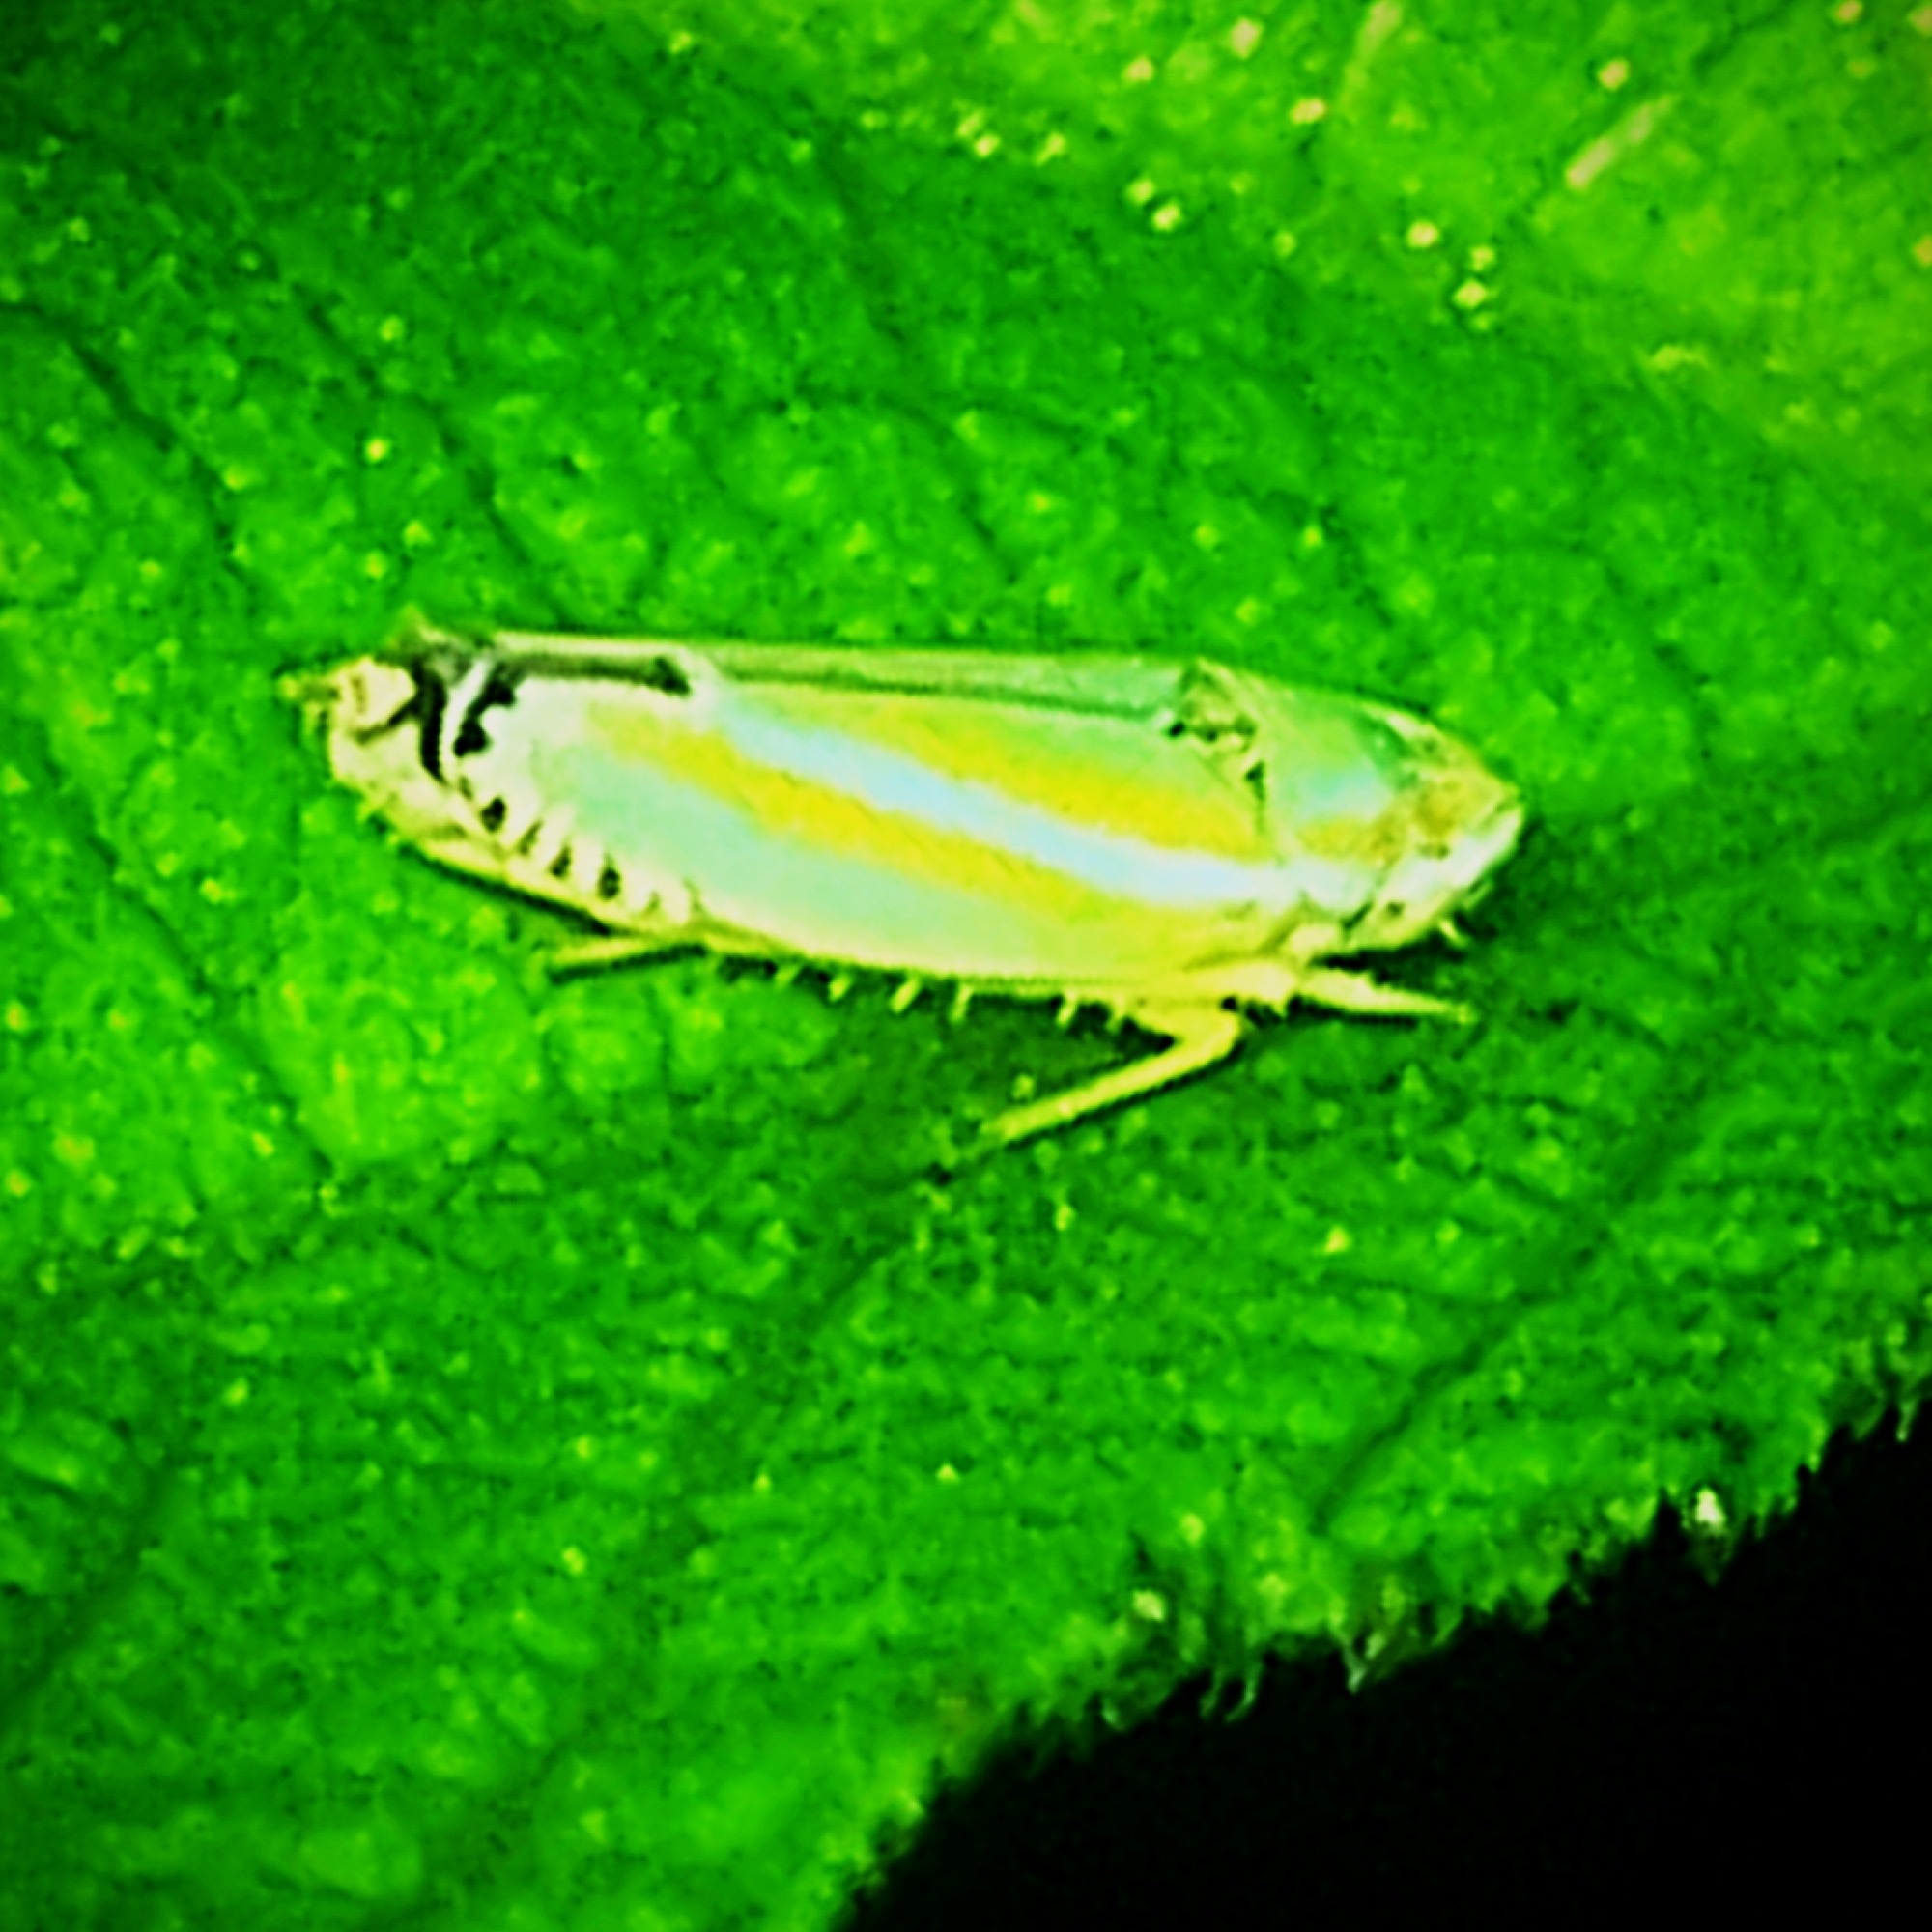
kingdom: Animalia
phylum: Arthropoda
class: Insecta
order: Hemiptera
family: Cicadellidae
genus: Graphocephala
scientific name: Graphocephala versuta
